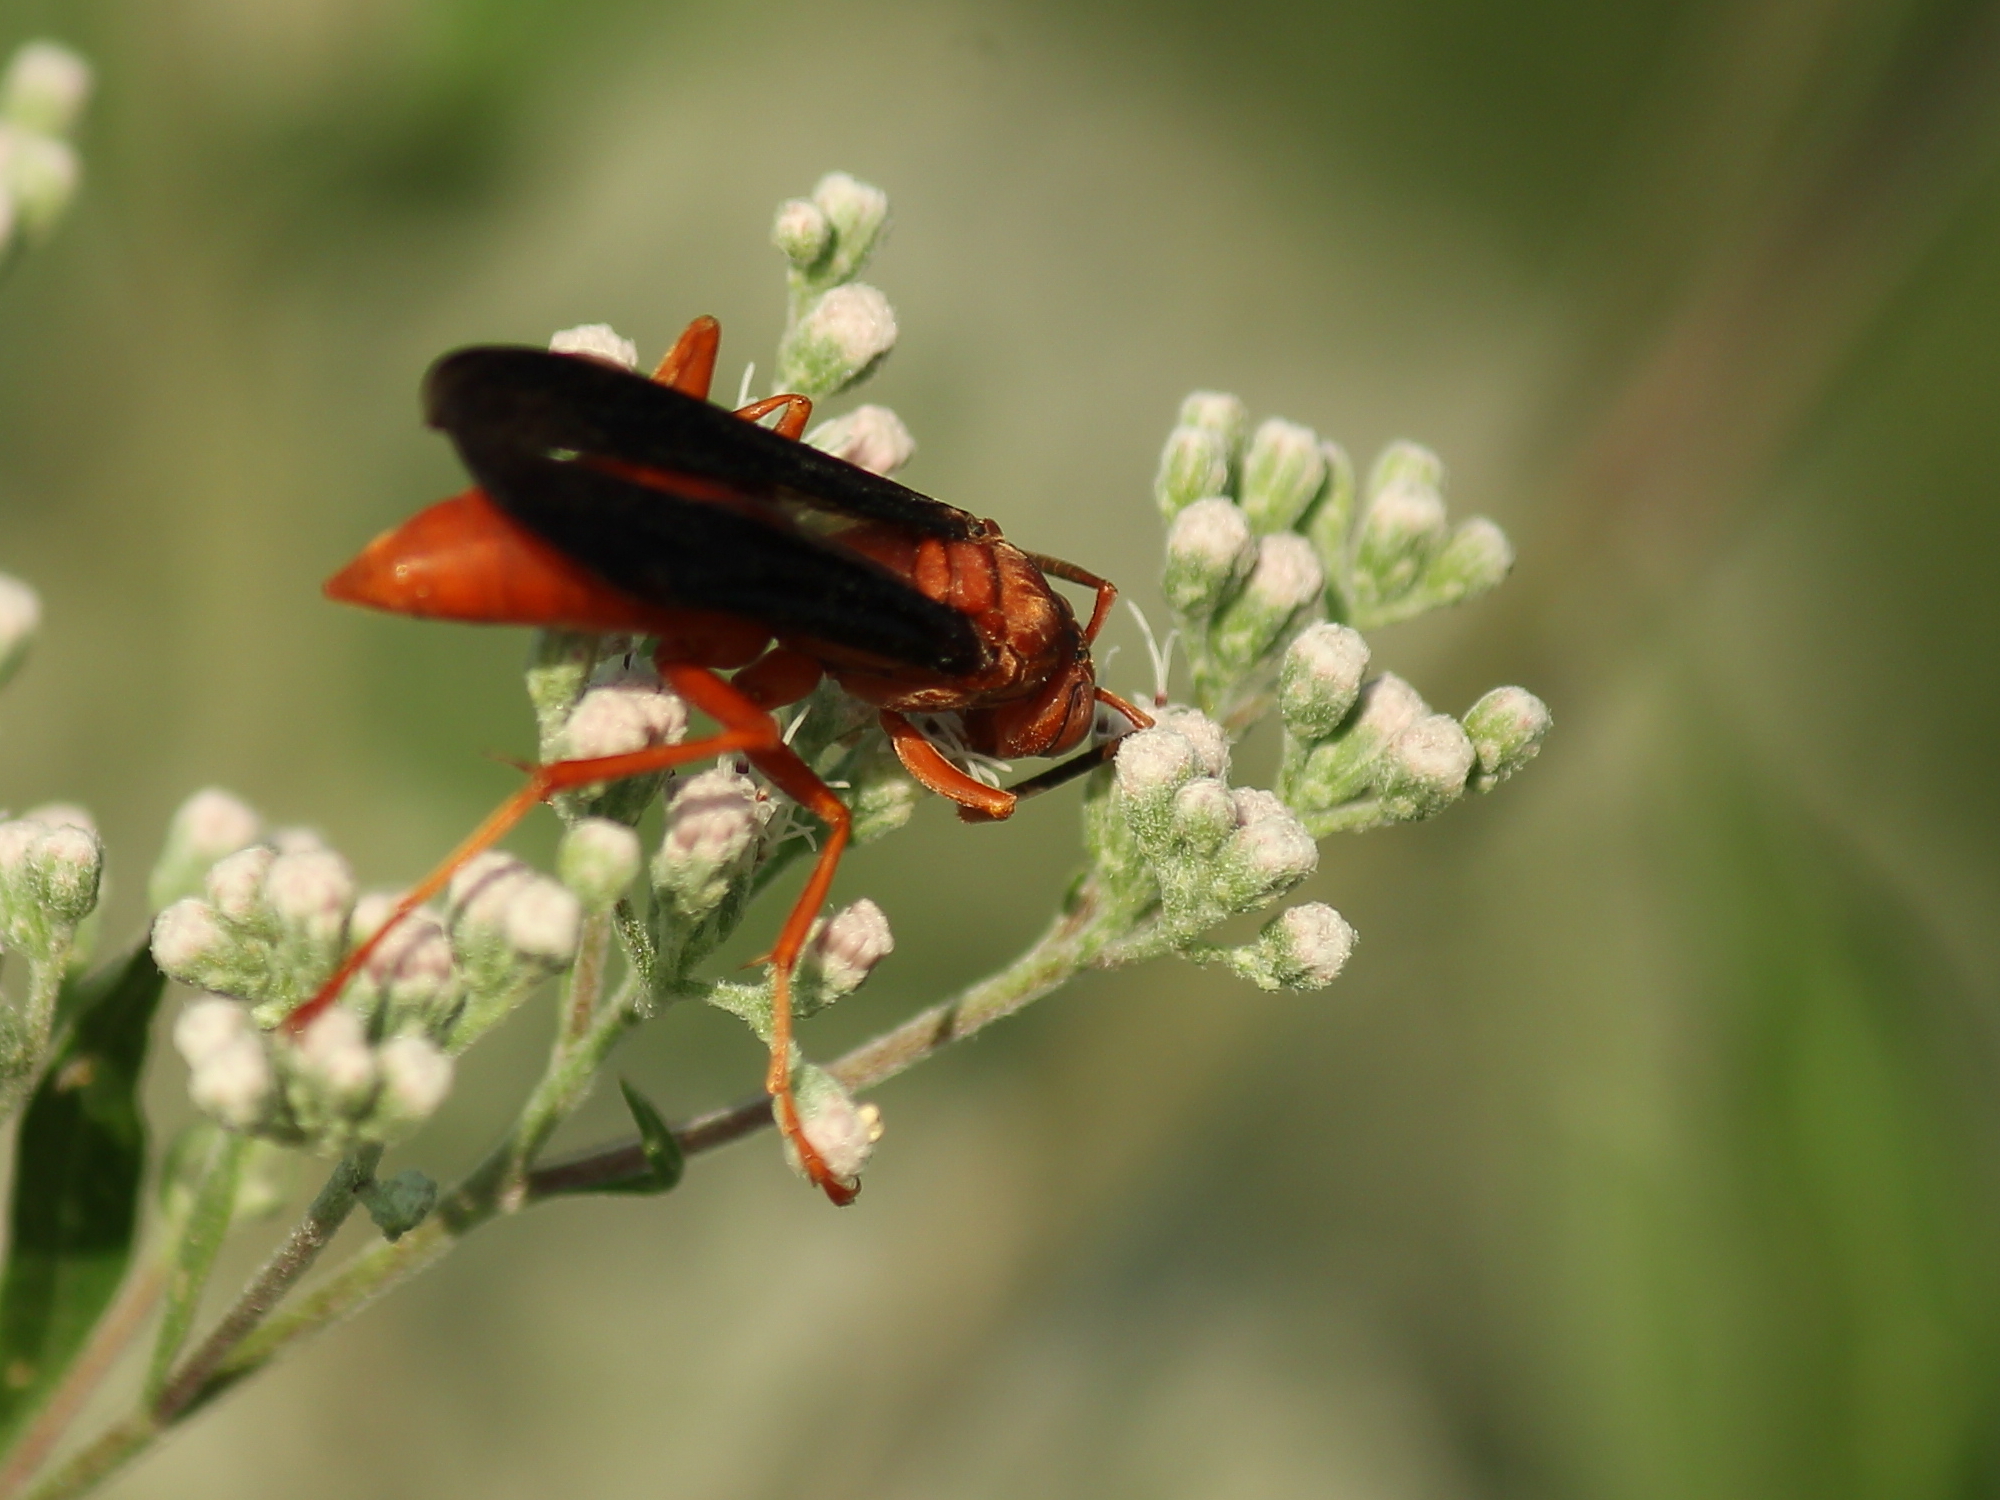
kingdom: Animalia
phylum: Arthropoda
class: Insecta
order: Hymenoptera
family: Eumenidae
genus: Polistes
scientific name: Polistes
